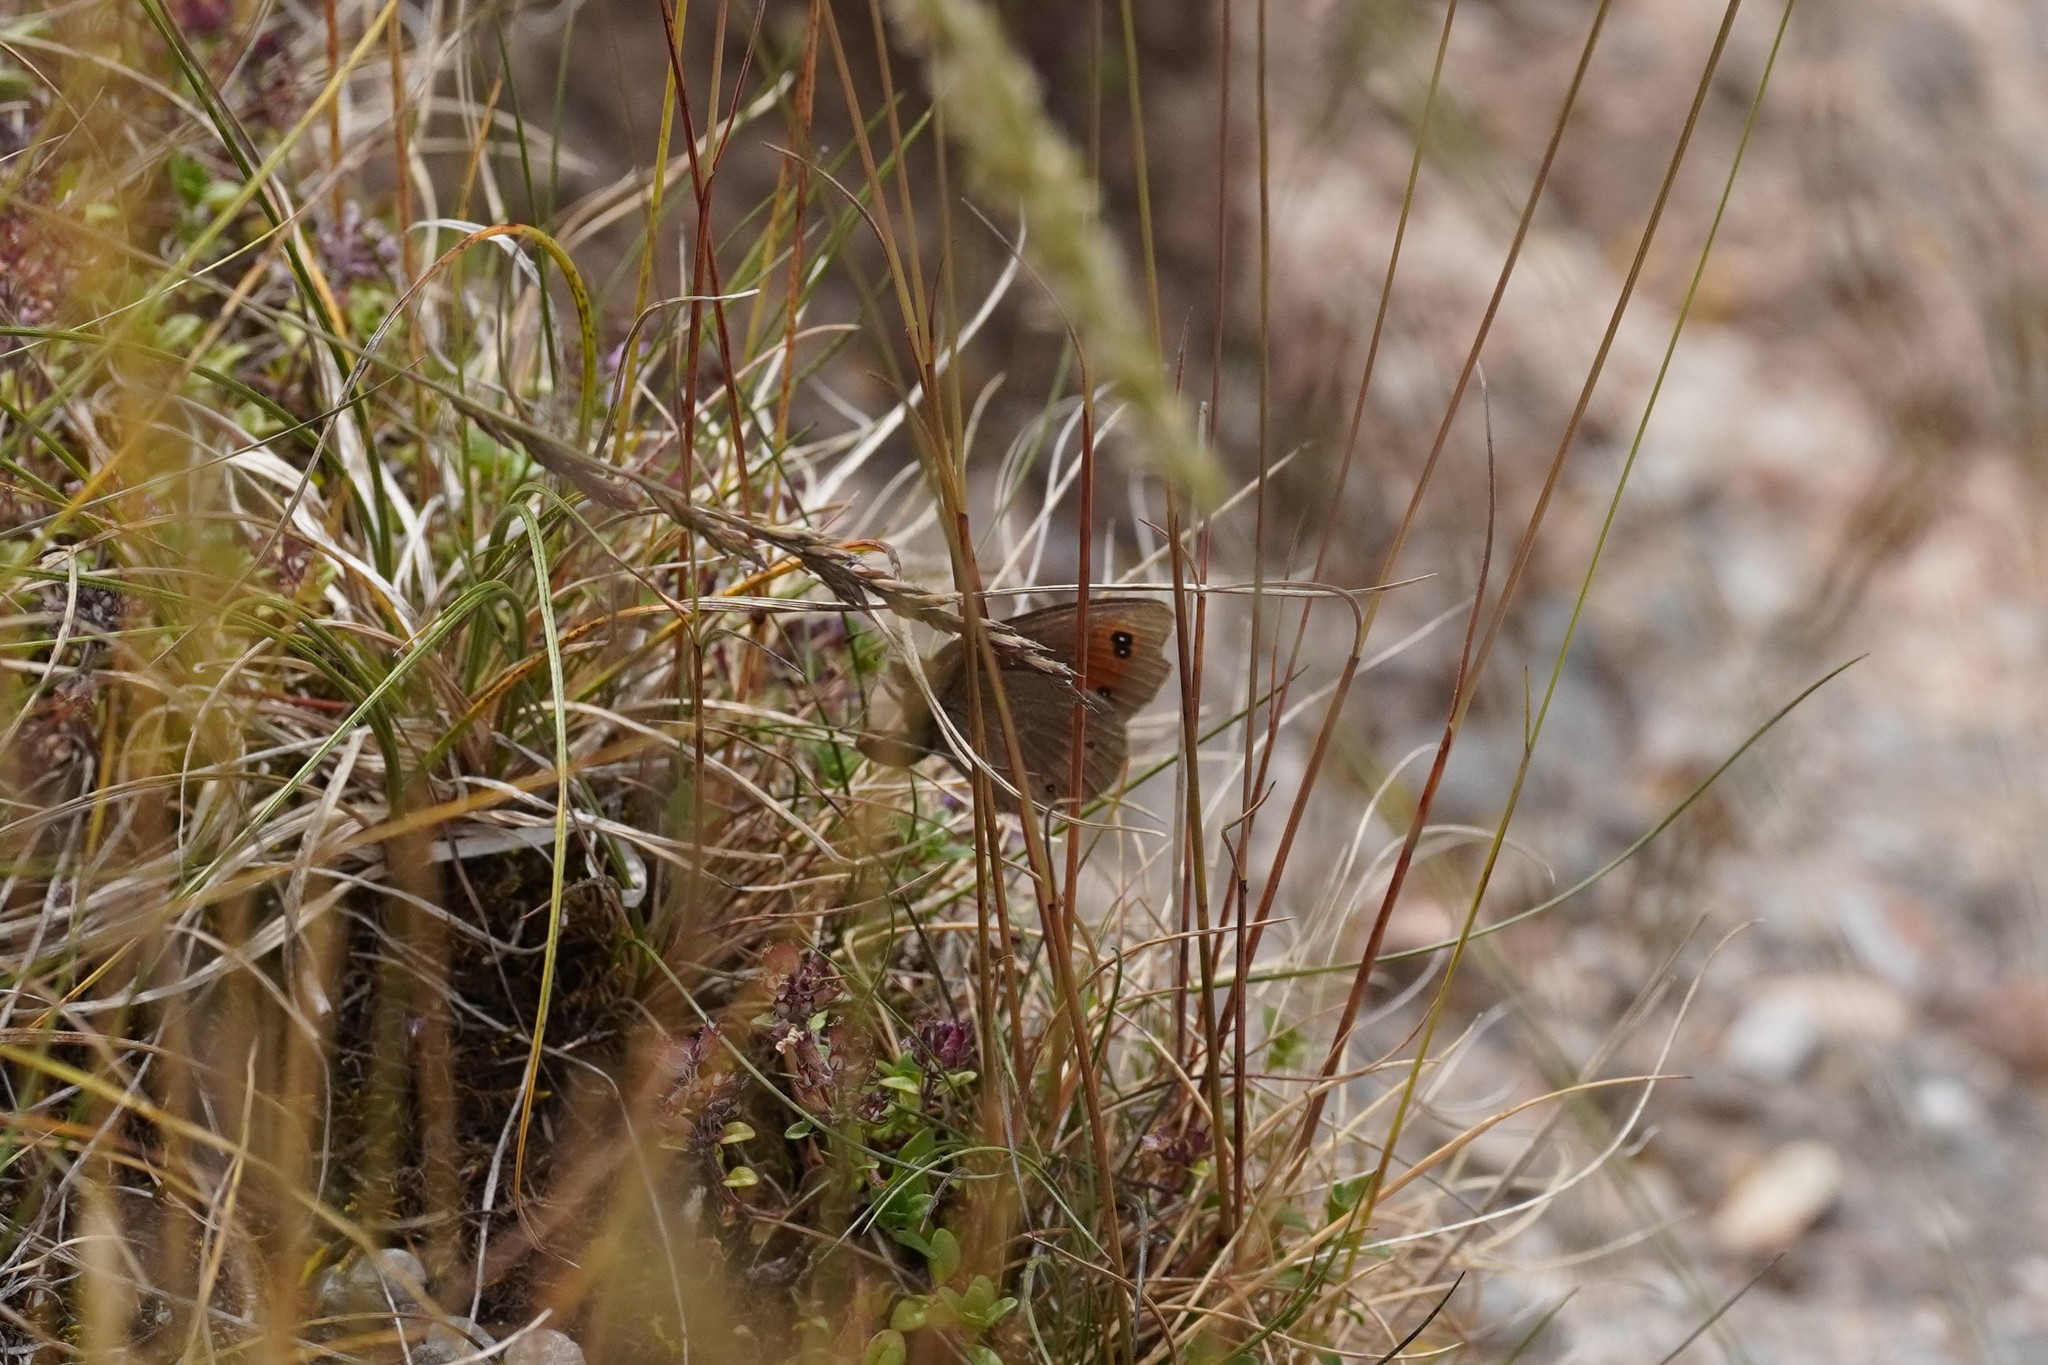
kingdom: Animalia
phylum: Arthropoda
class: Insecta
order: Lepidoptera
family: Nymphalidae
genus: Erebia
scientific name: Erebia meolans
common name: Piedmont ringlet
